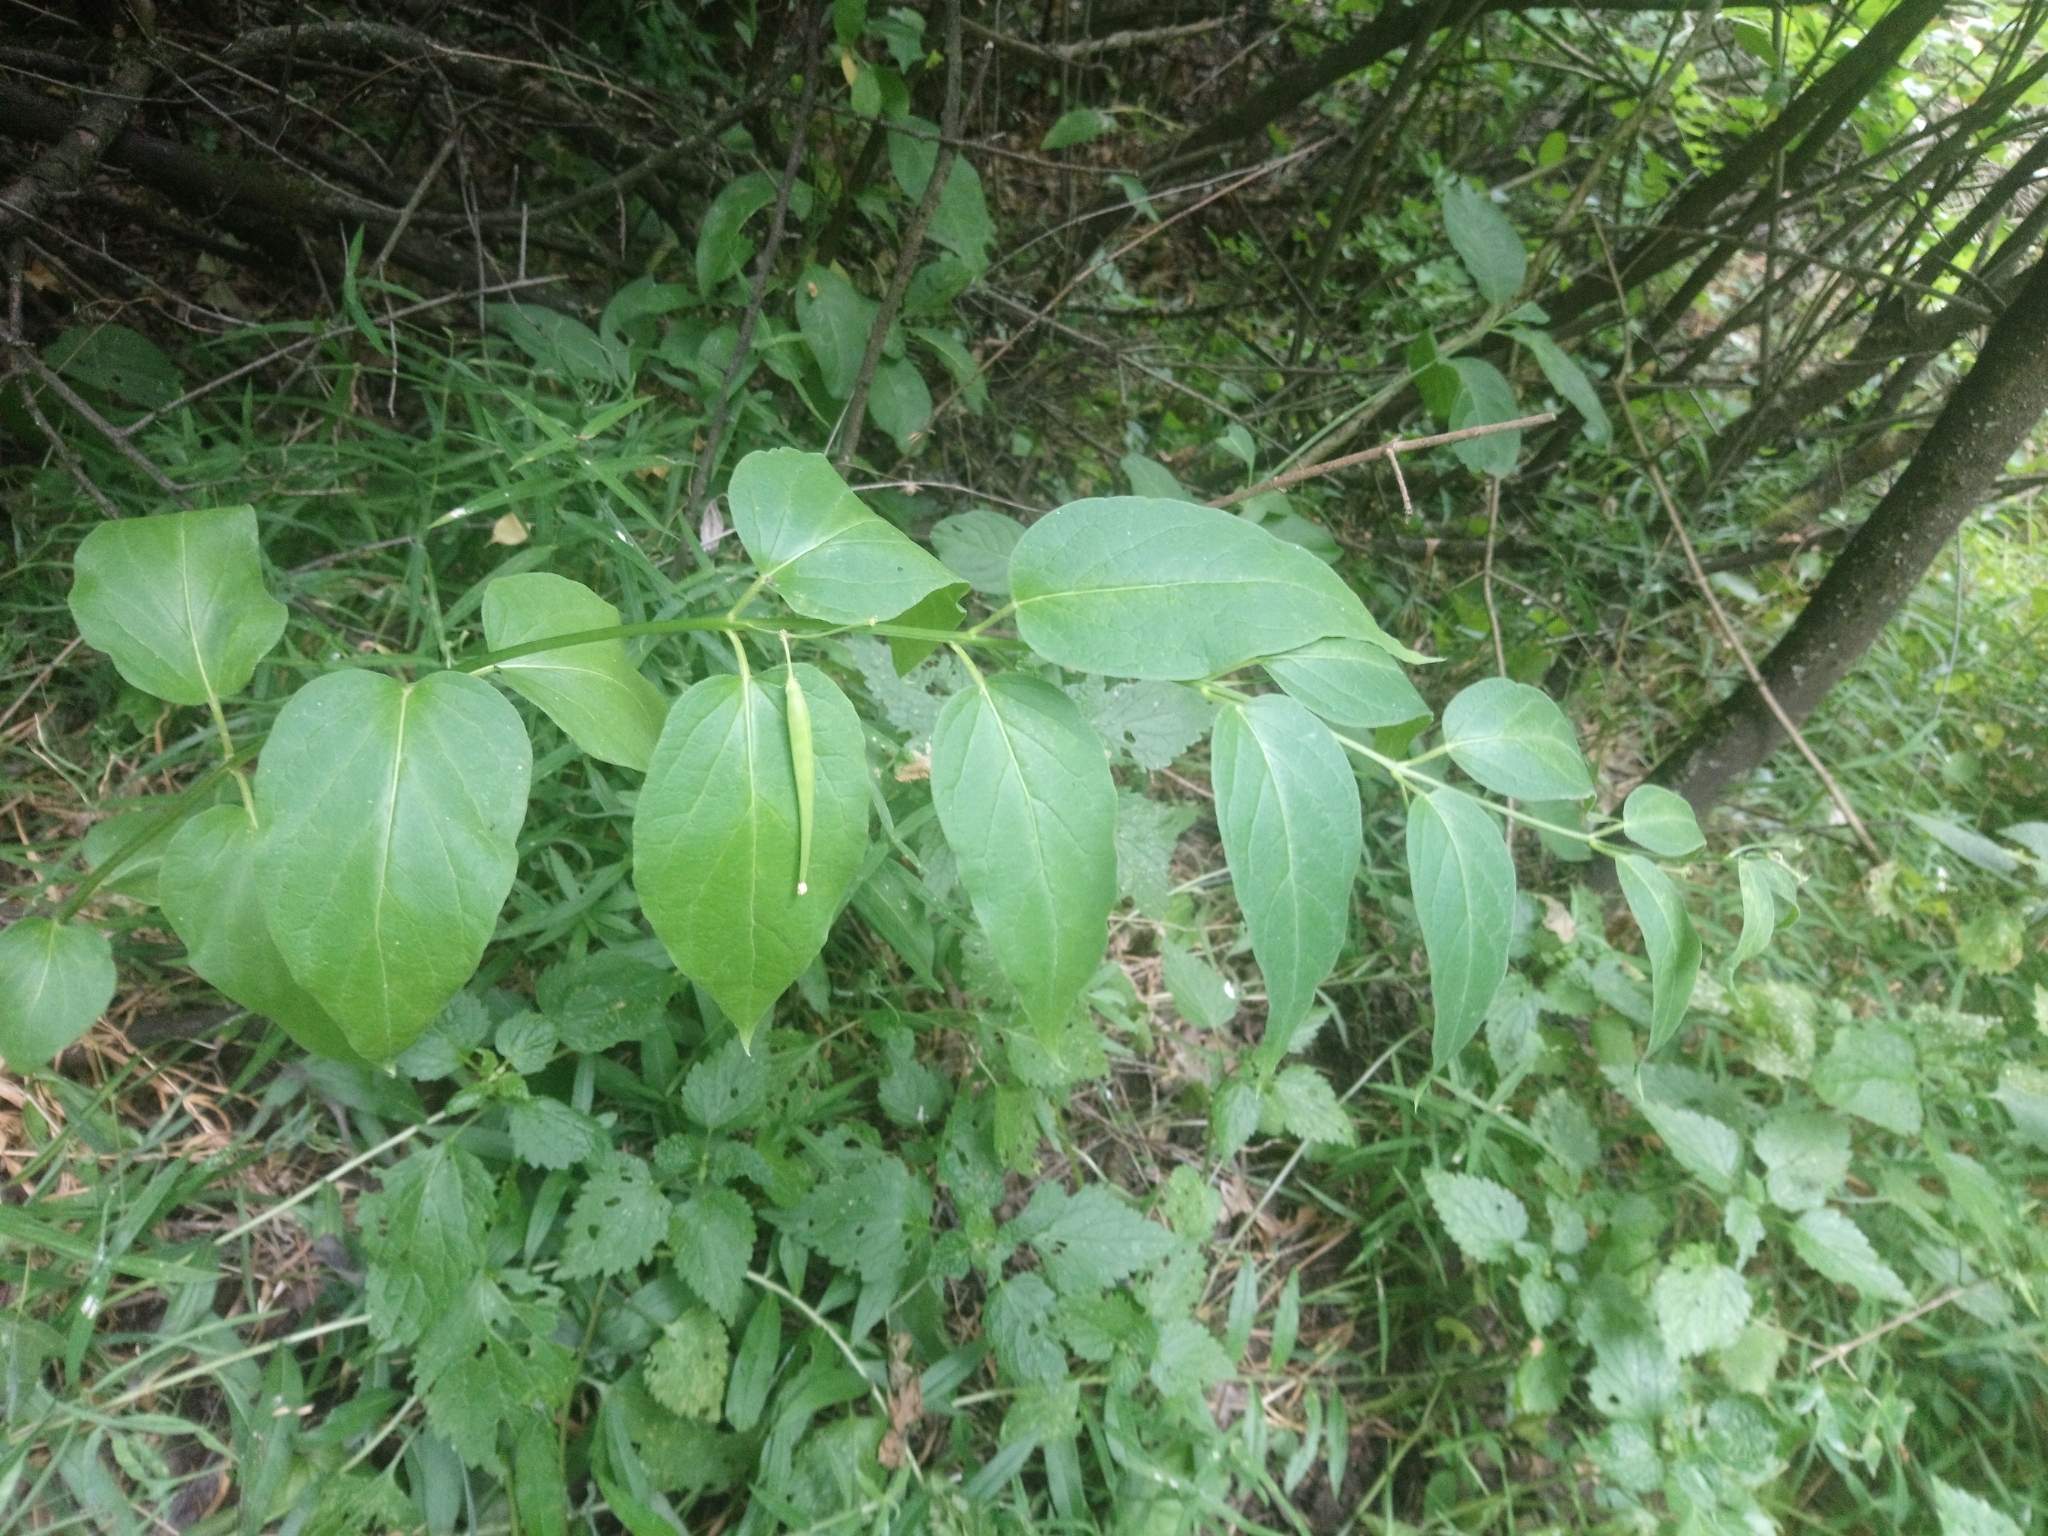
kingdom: Plantae
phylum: Tracheophyta
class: Magnoliopsida
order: Gentianales
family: Apocynaceae
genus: Vincetoxicum
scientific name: Vincetoxicum hirundinaria
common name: White swallowwort
